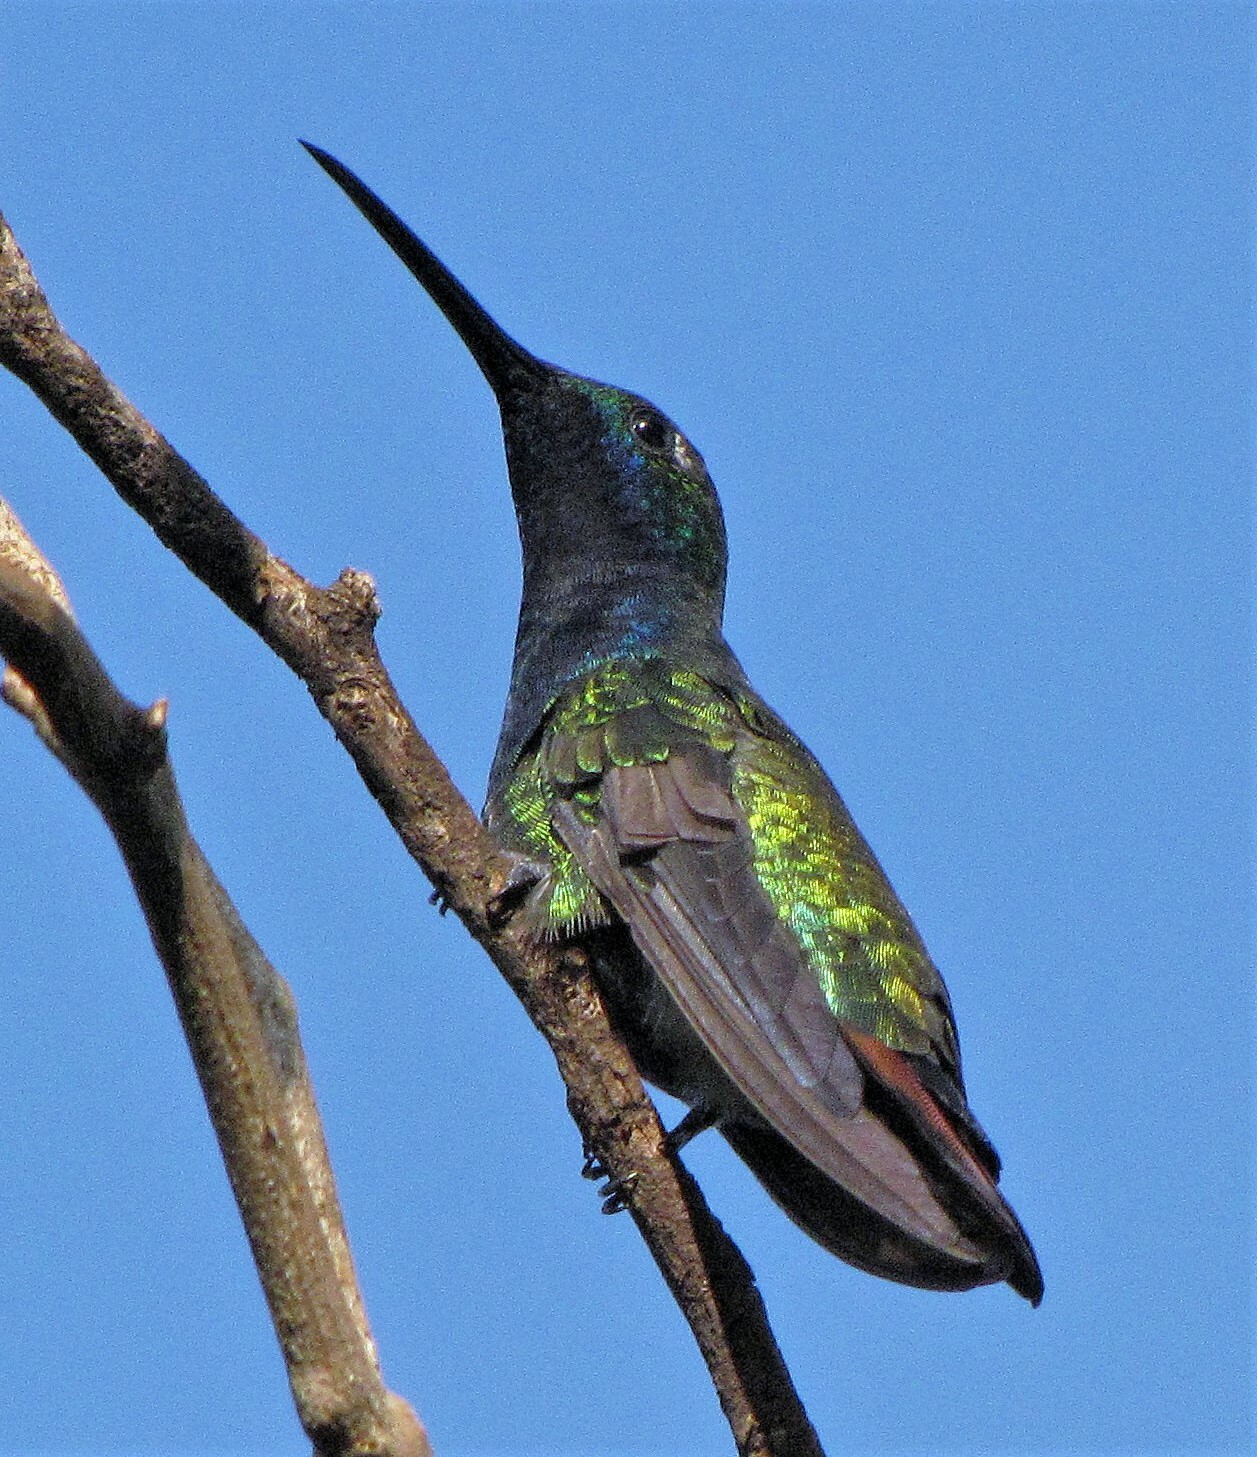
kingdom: Animalia
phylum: Chordata
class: Aves
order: Apodiformes
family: Trochilidae
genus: Anthracothorax
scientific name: Anthracothorax nigricollis
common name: Black-throated mango
